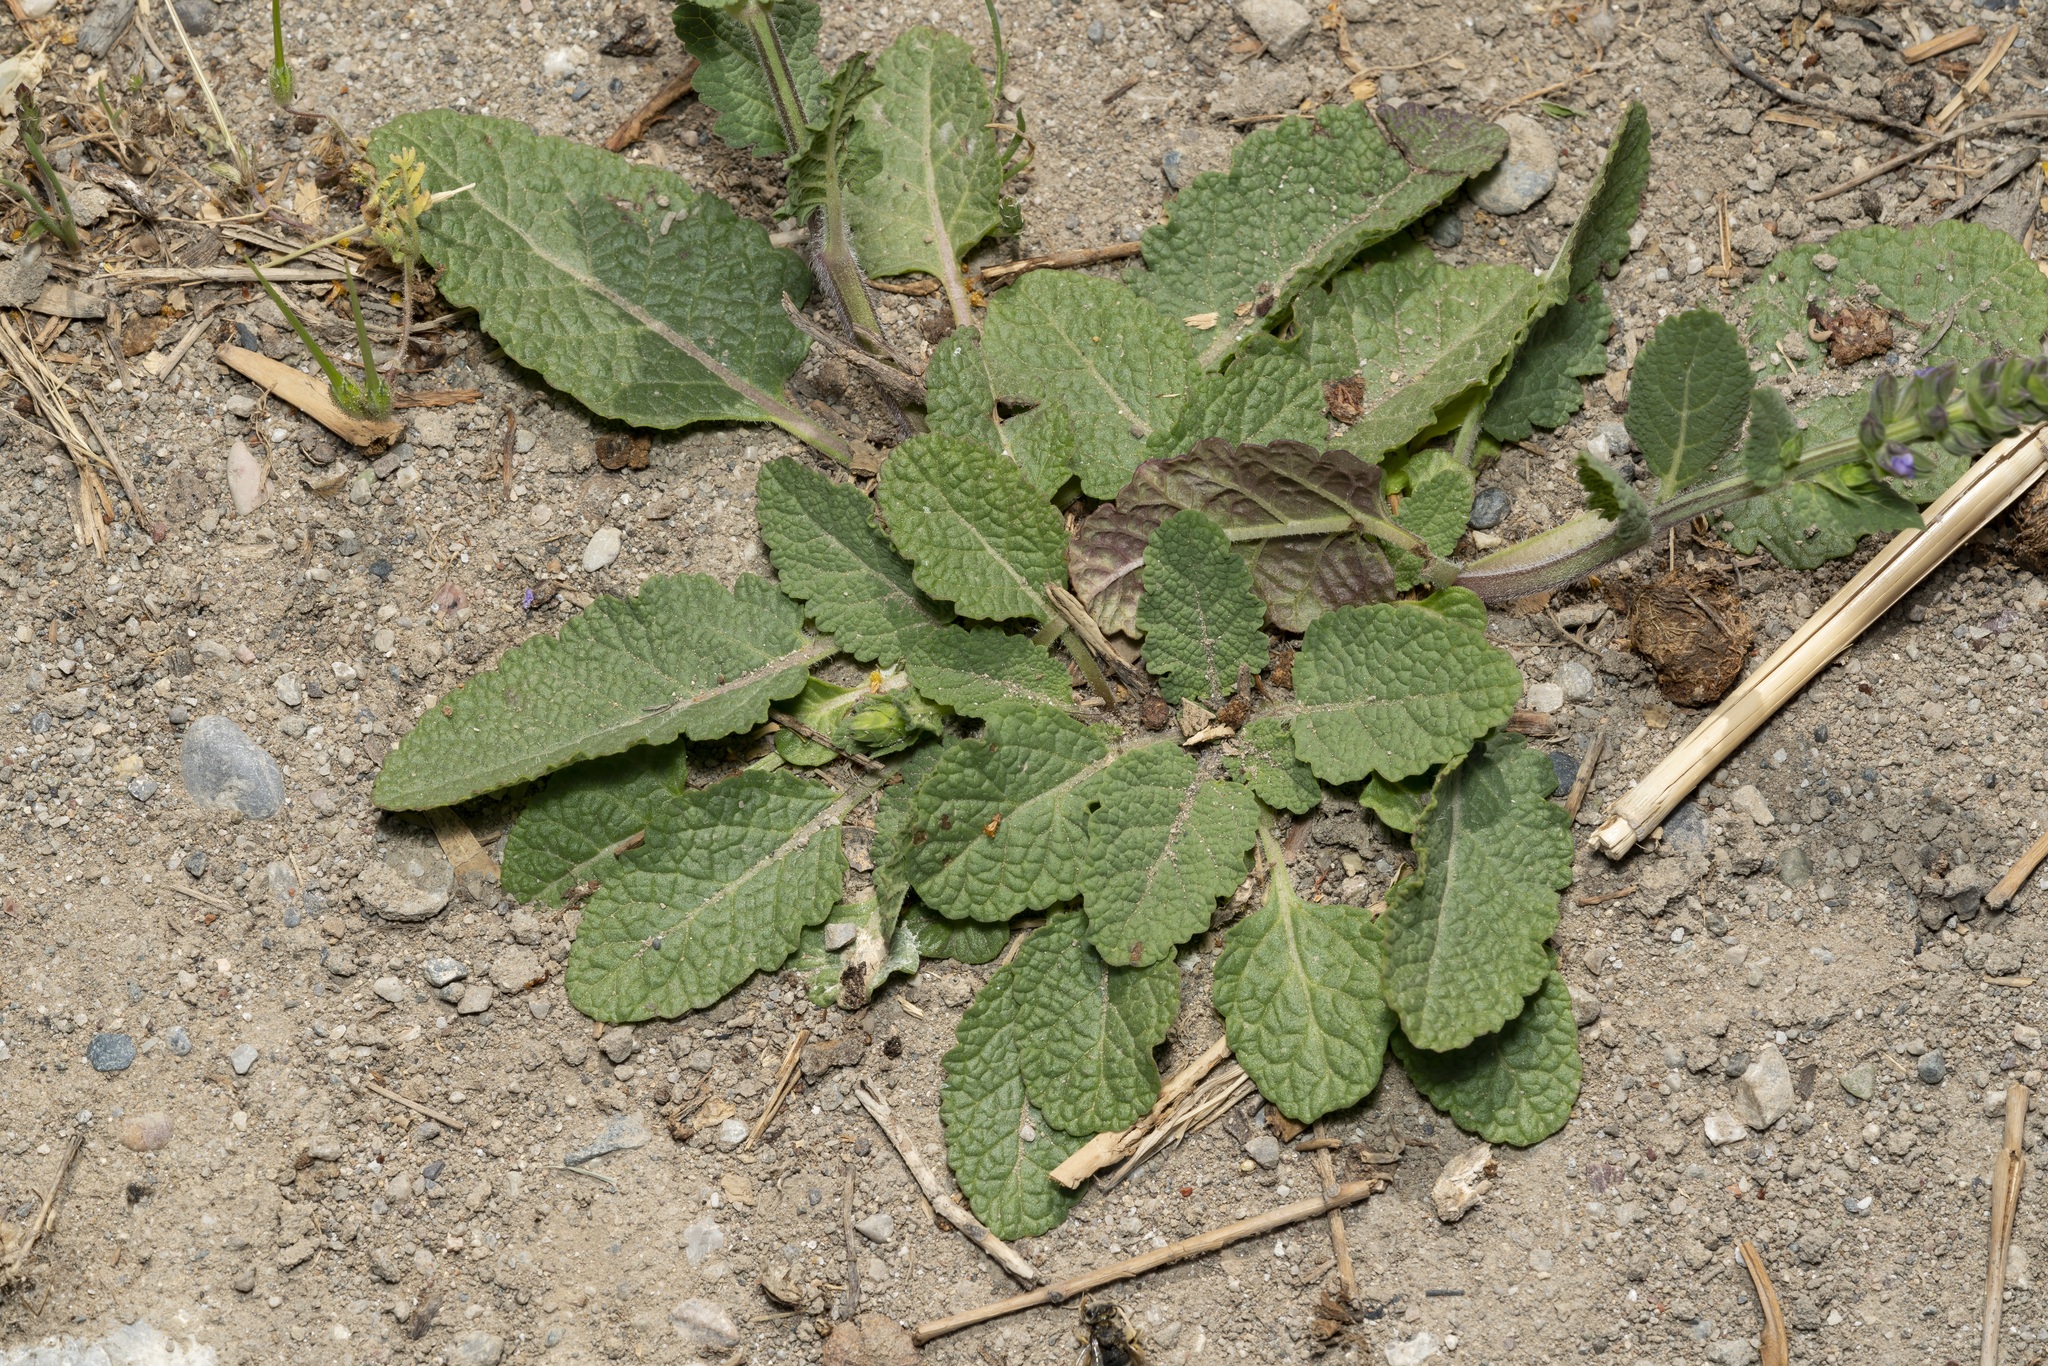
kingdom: Plantae
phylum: Tracheophyta
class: Magnoliopsida
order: Lamiales
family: Lamiaceae
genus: Salvia
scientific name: Salvia verbenaca
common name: Wild clary
